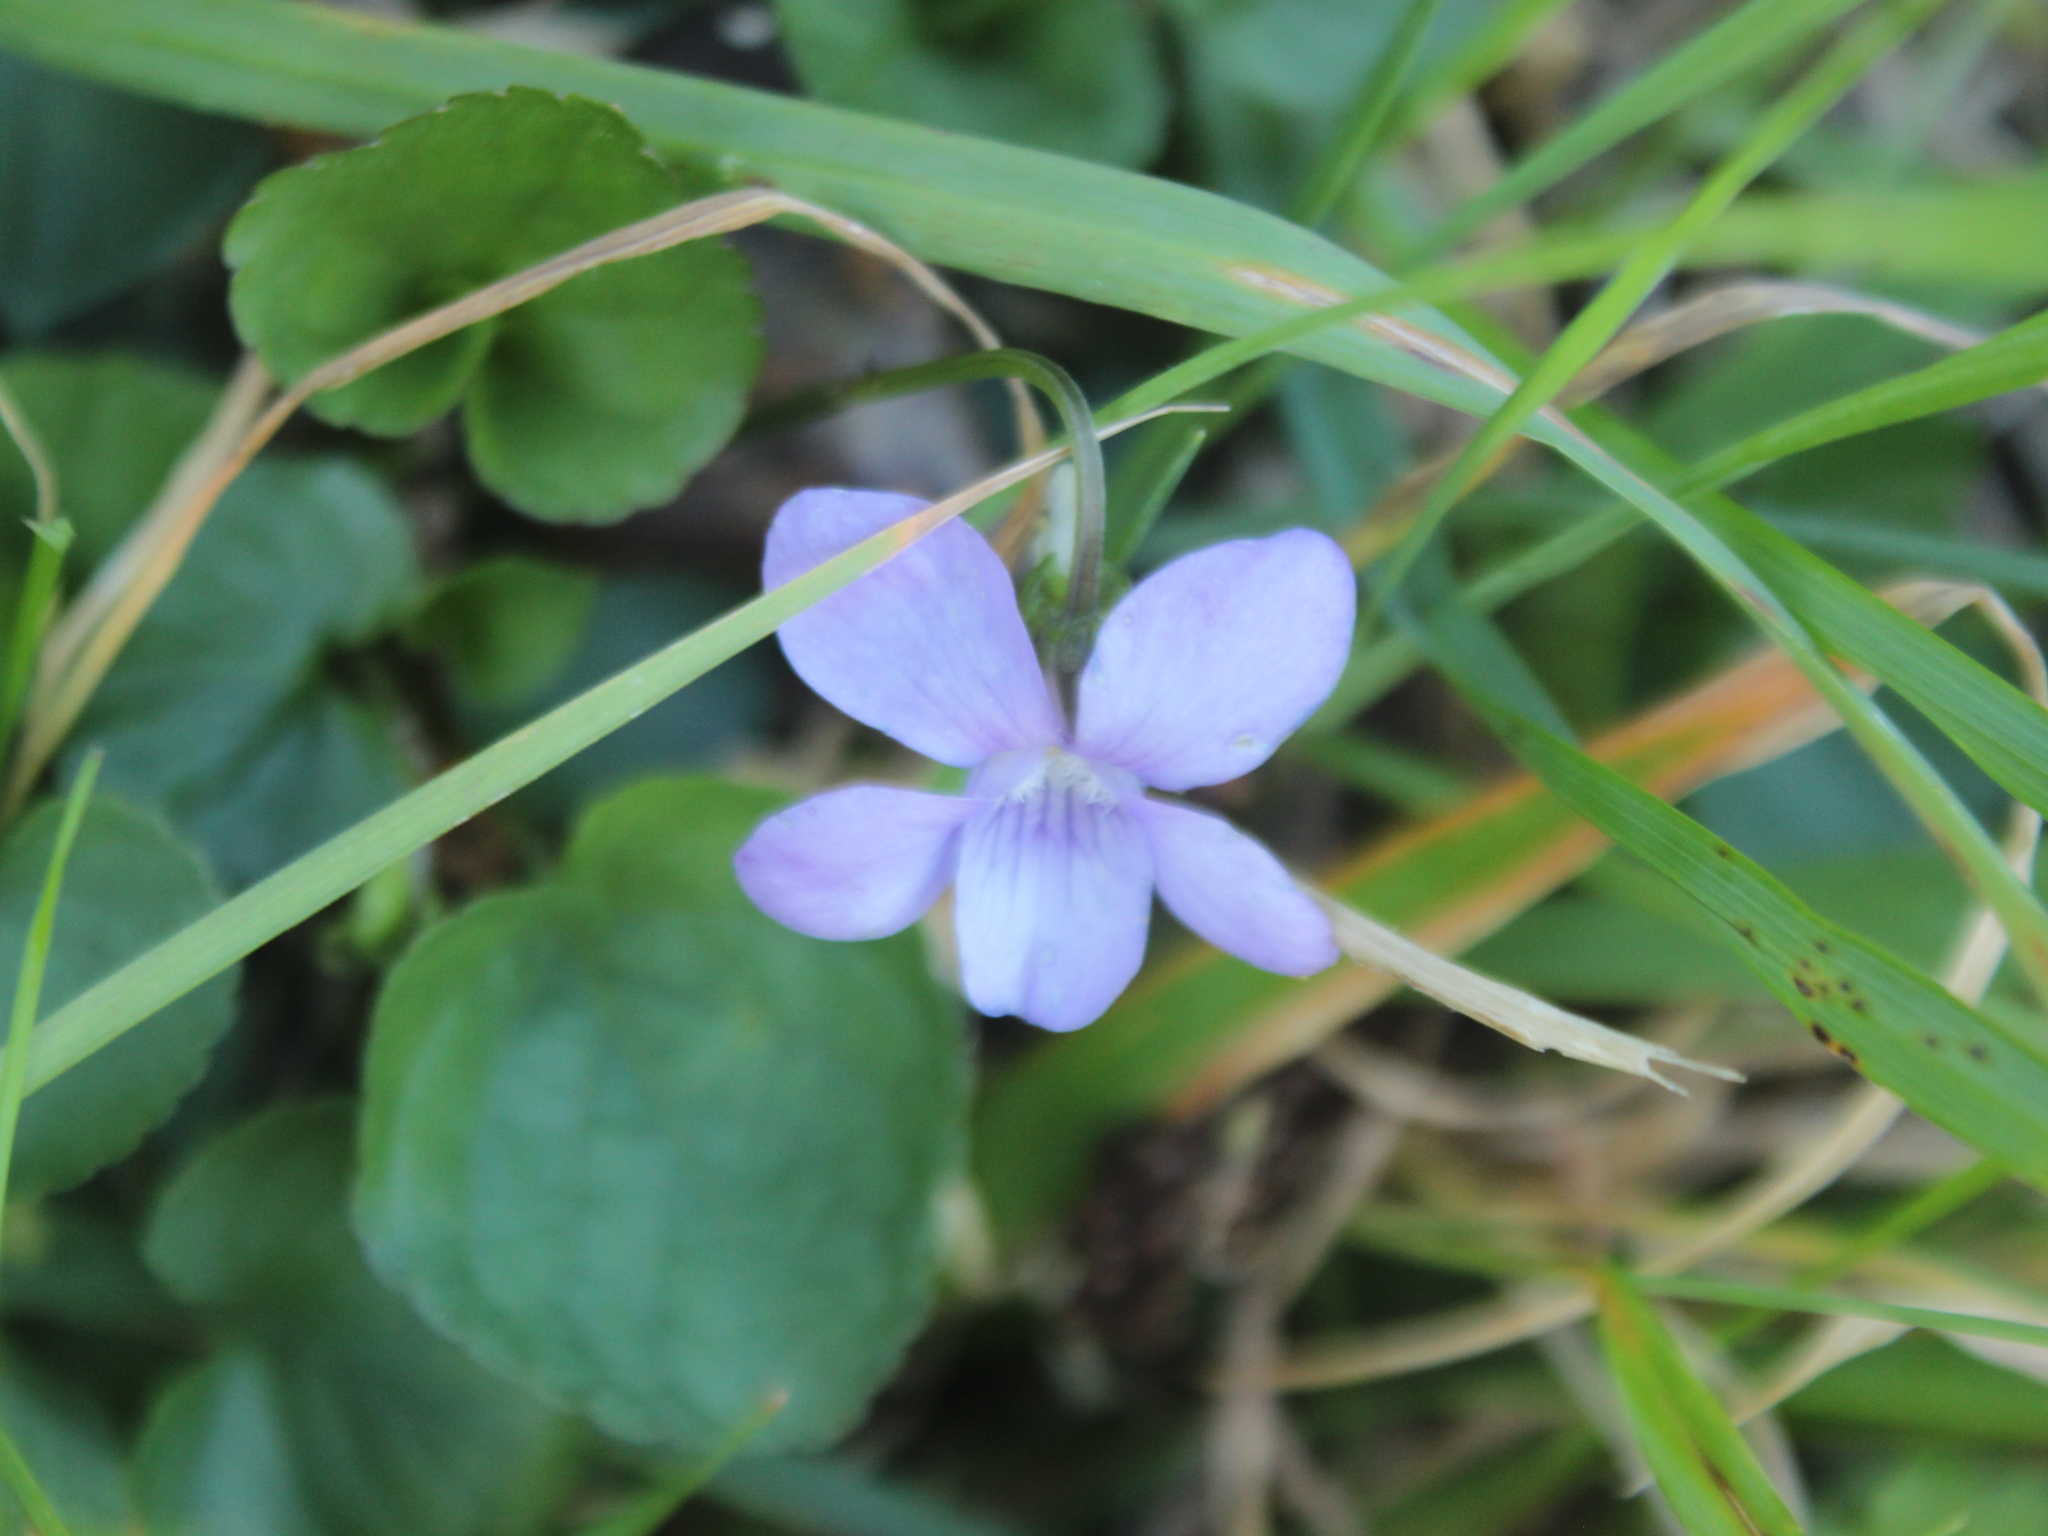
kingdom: Plantae
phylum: Tracheophyta
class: Magnoliopsida
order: Malpighiales
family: Violaceae
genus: Viola
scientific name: Viola riviniana
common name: Common dog-violet
